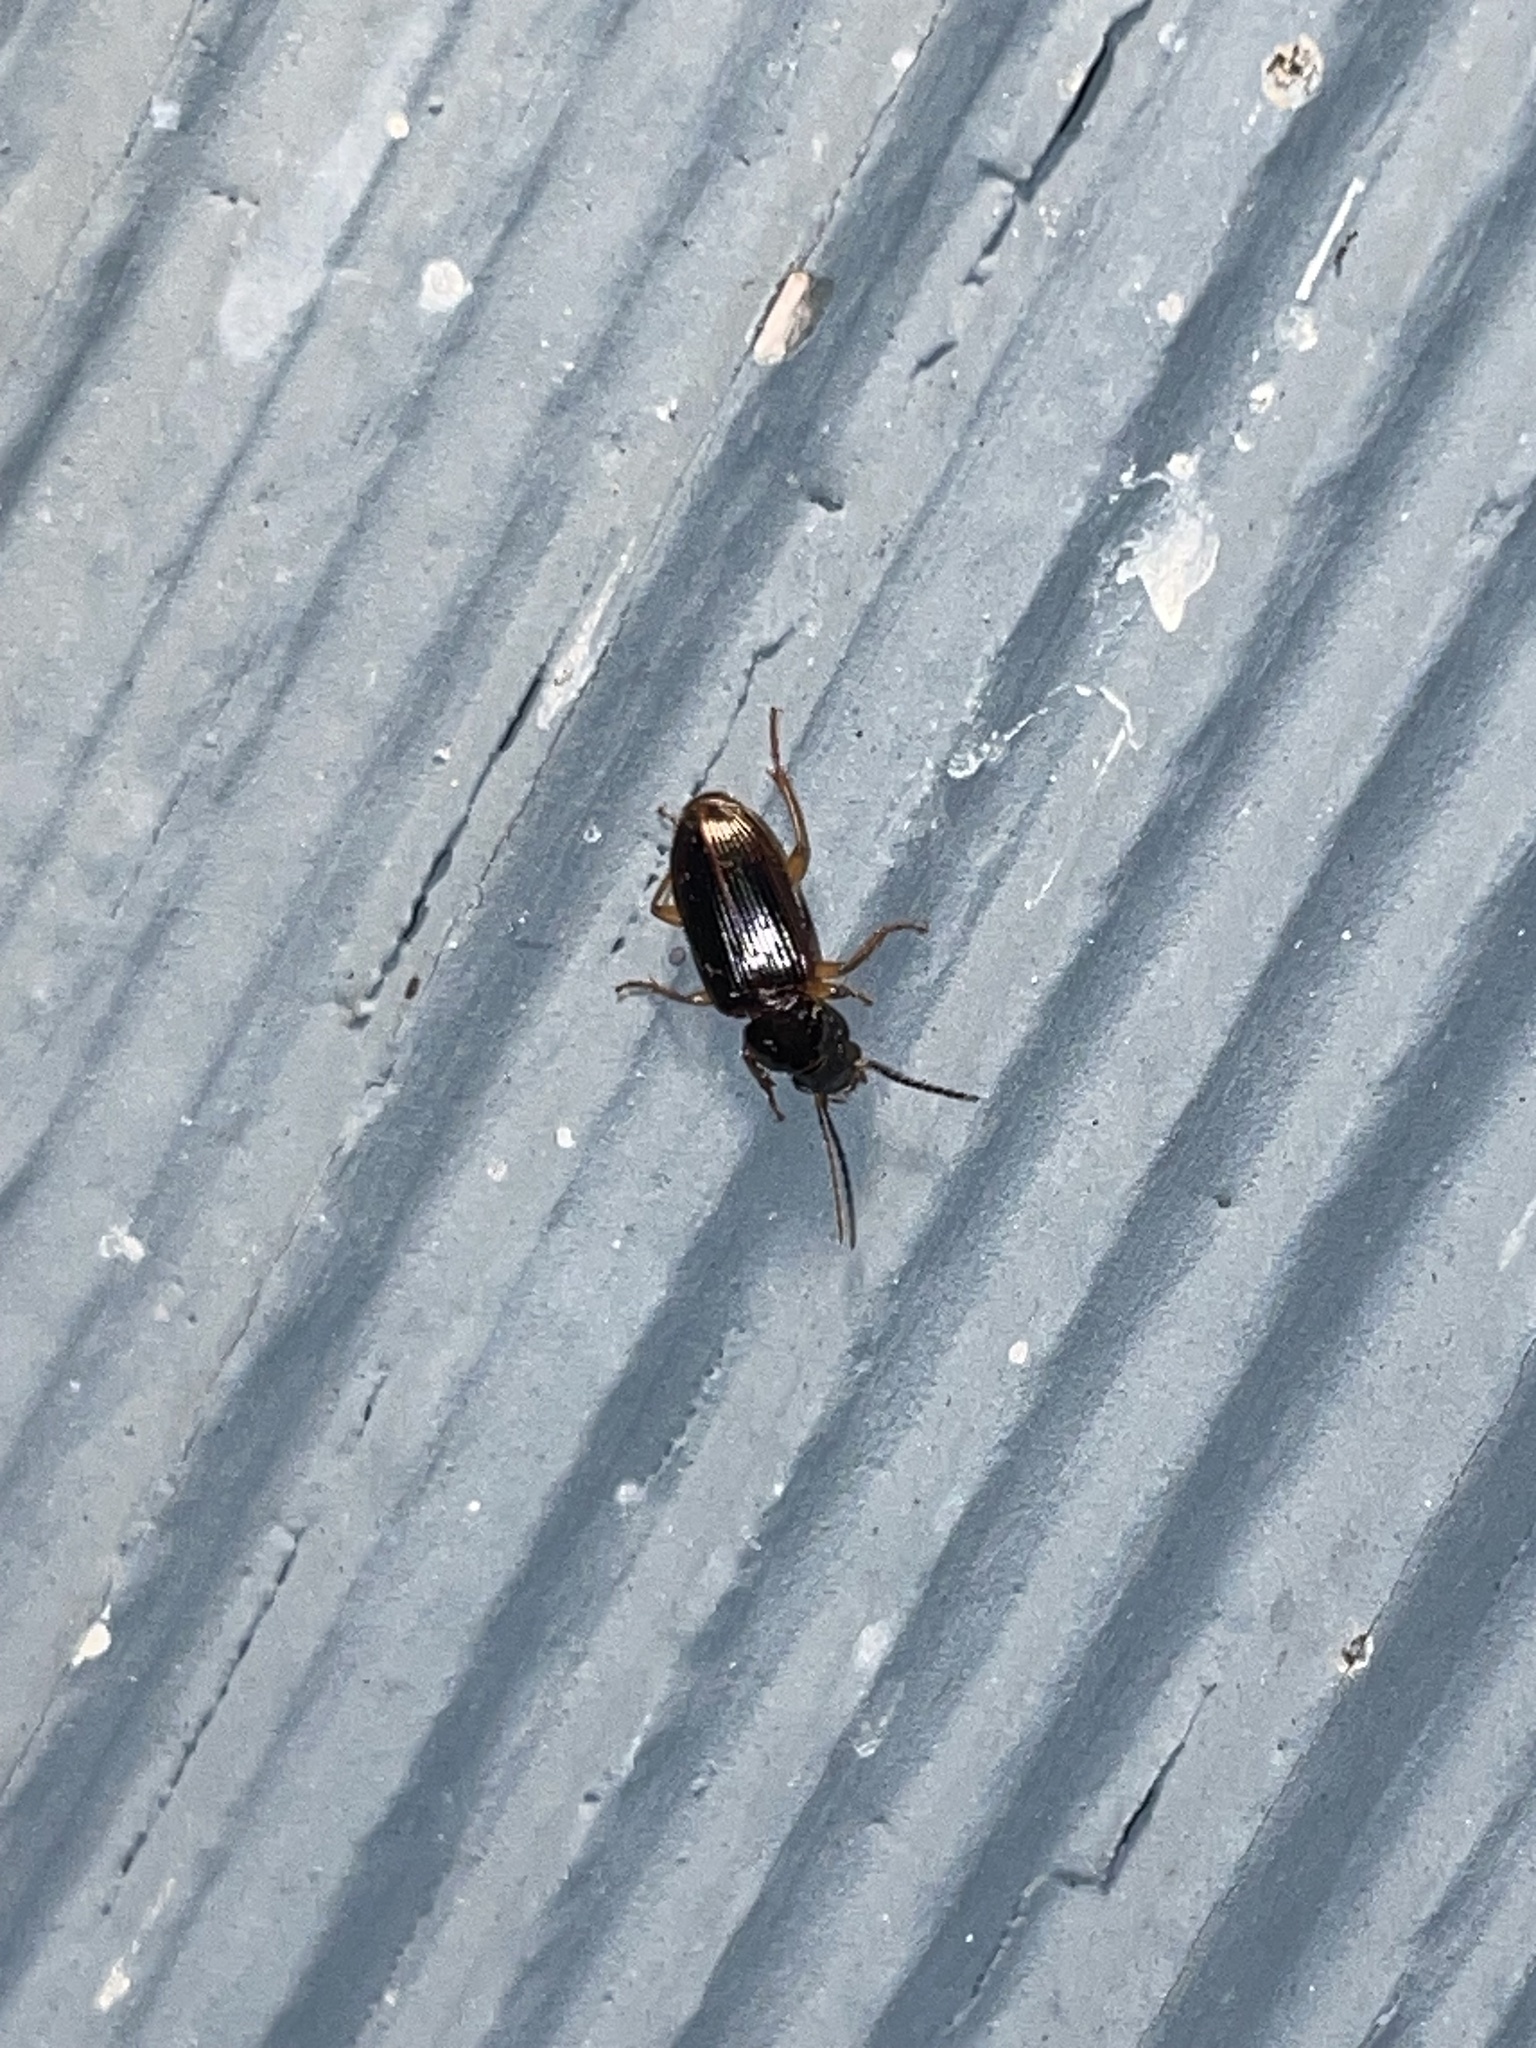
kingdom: Animalia
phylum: Arthropoda
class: Insecta
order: Coleoptera
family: Carabidae
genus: Stenolophus
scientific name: Stenolophus ochropezus
